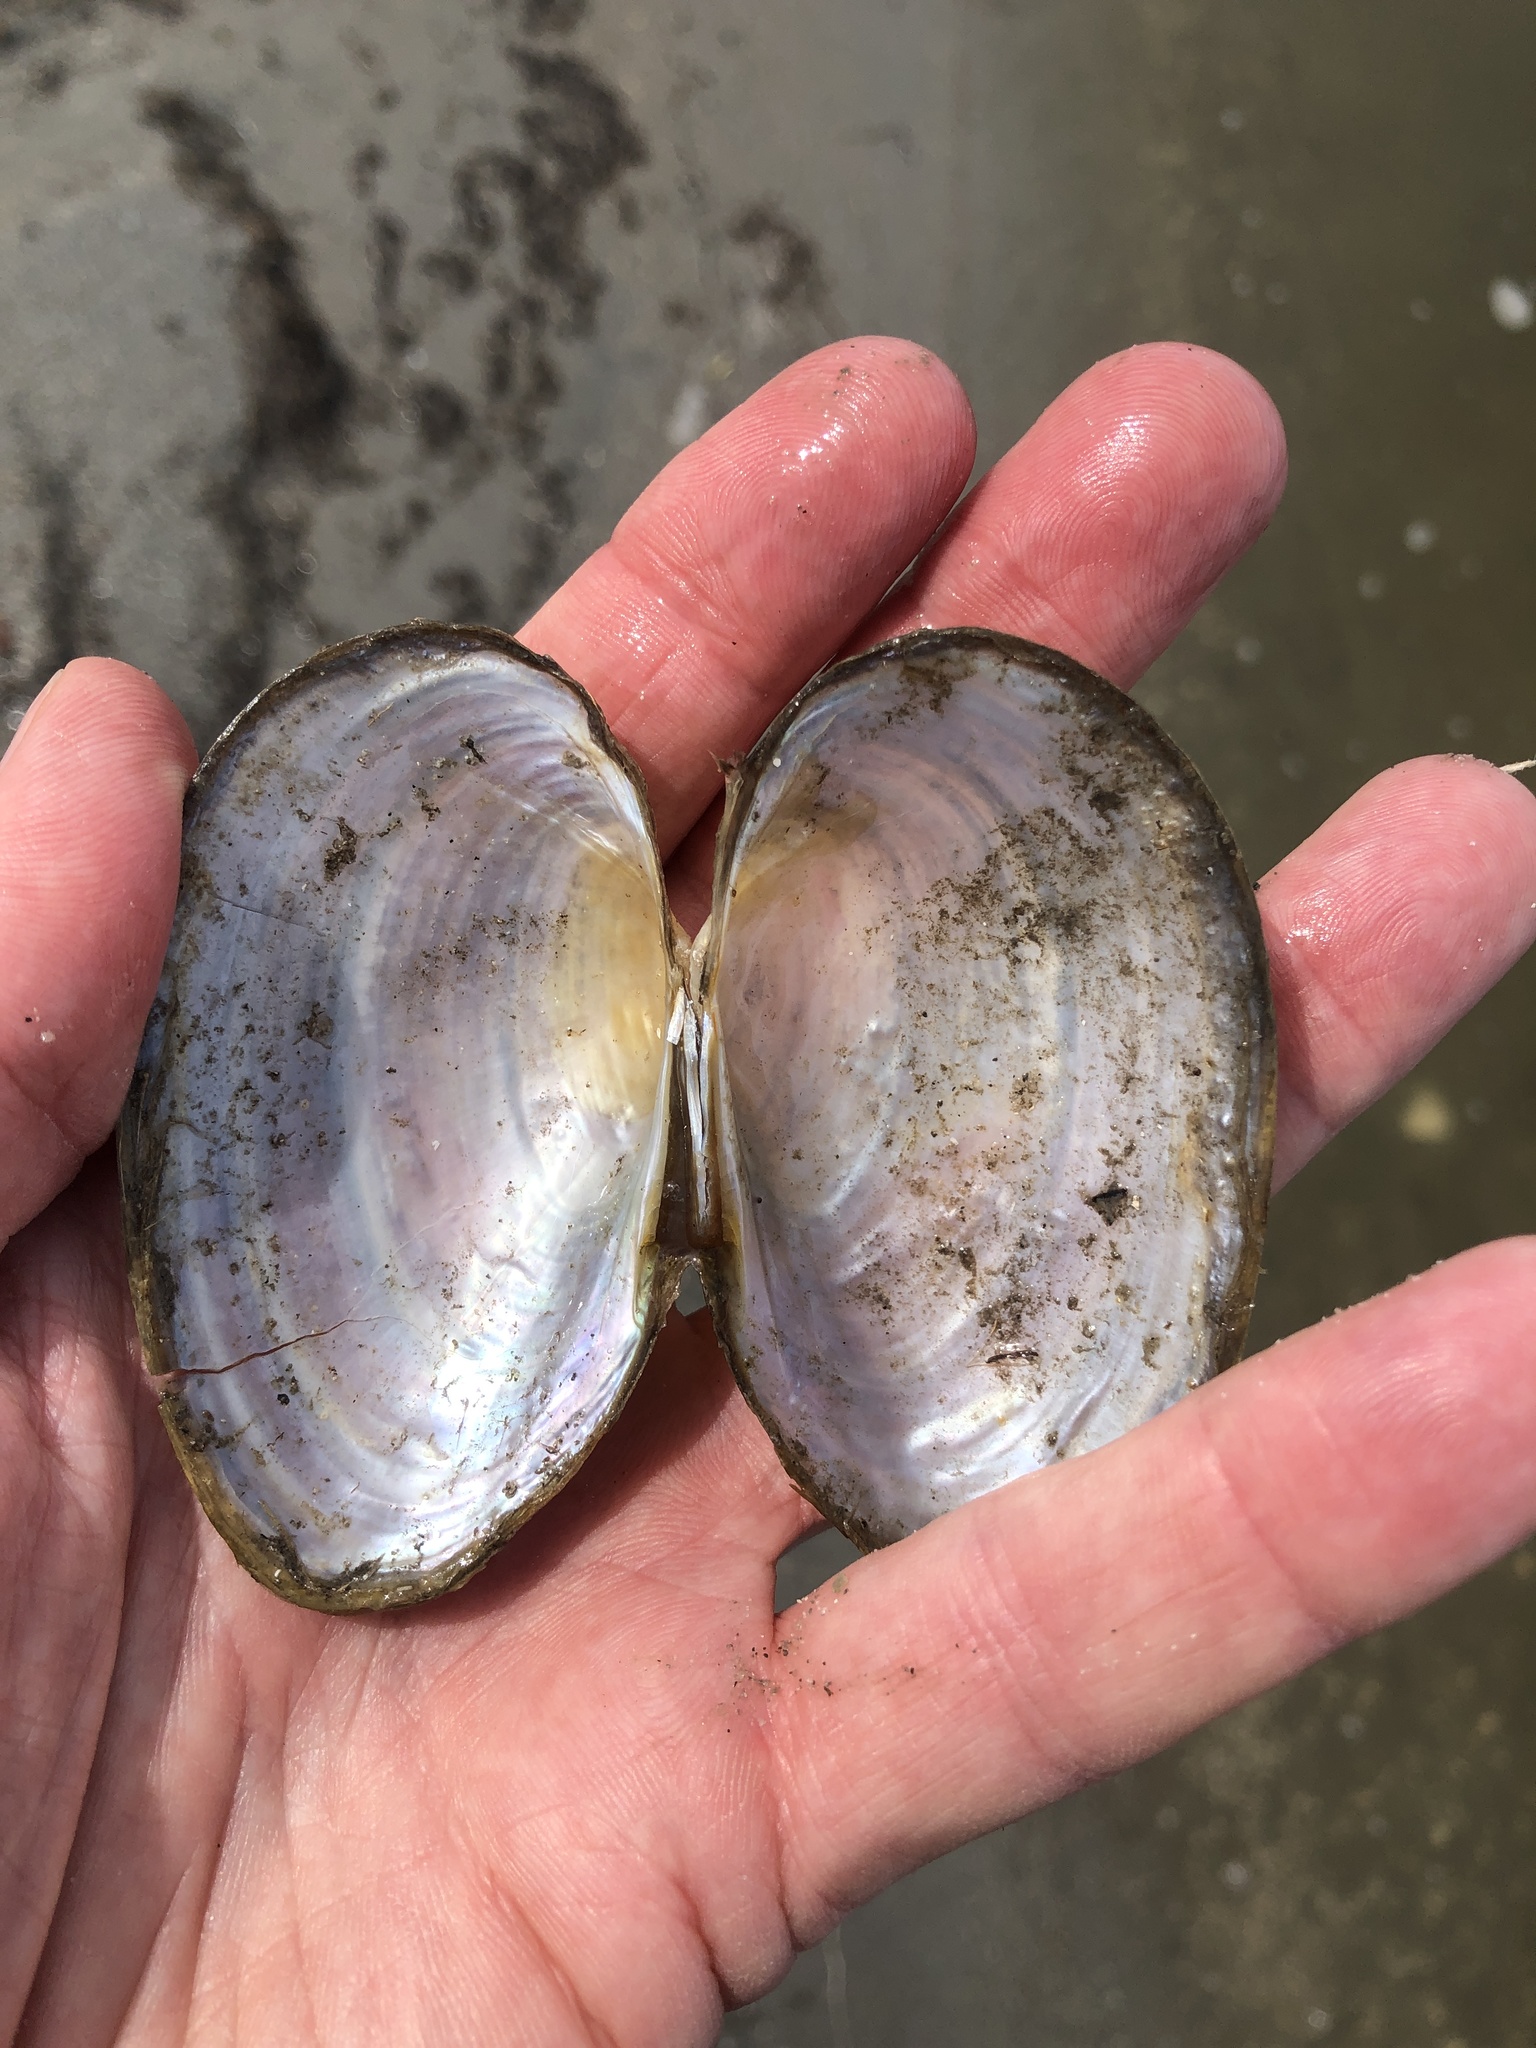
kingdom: Animalia
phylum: Mollusca
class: Bivalvia
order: Unionida
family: Unionidae
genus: Pyganodon
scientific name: Pyganodon grandis
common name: Giant floater
